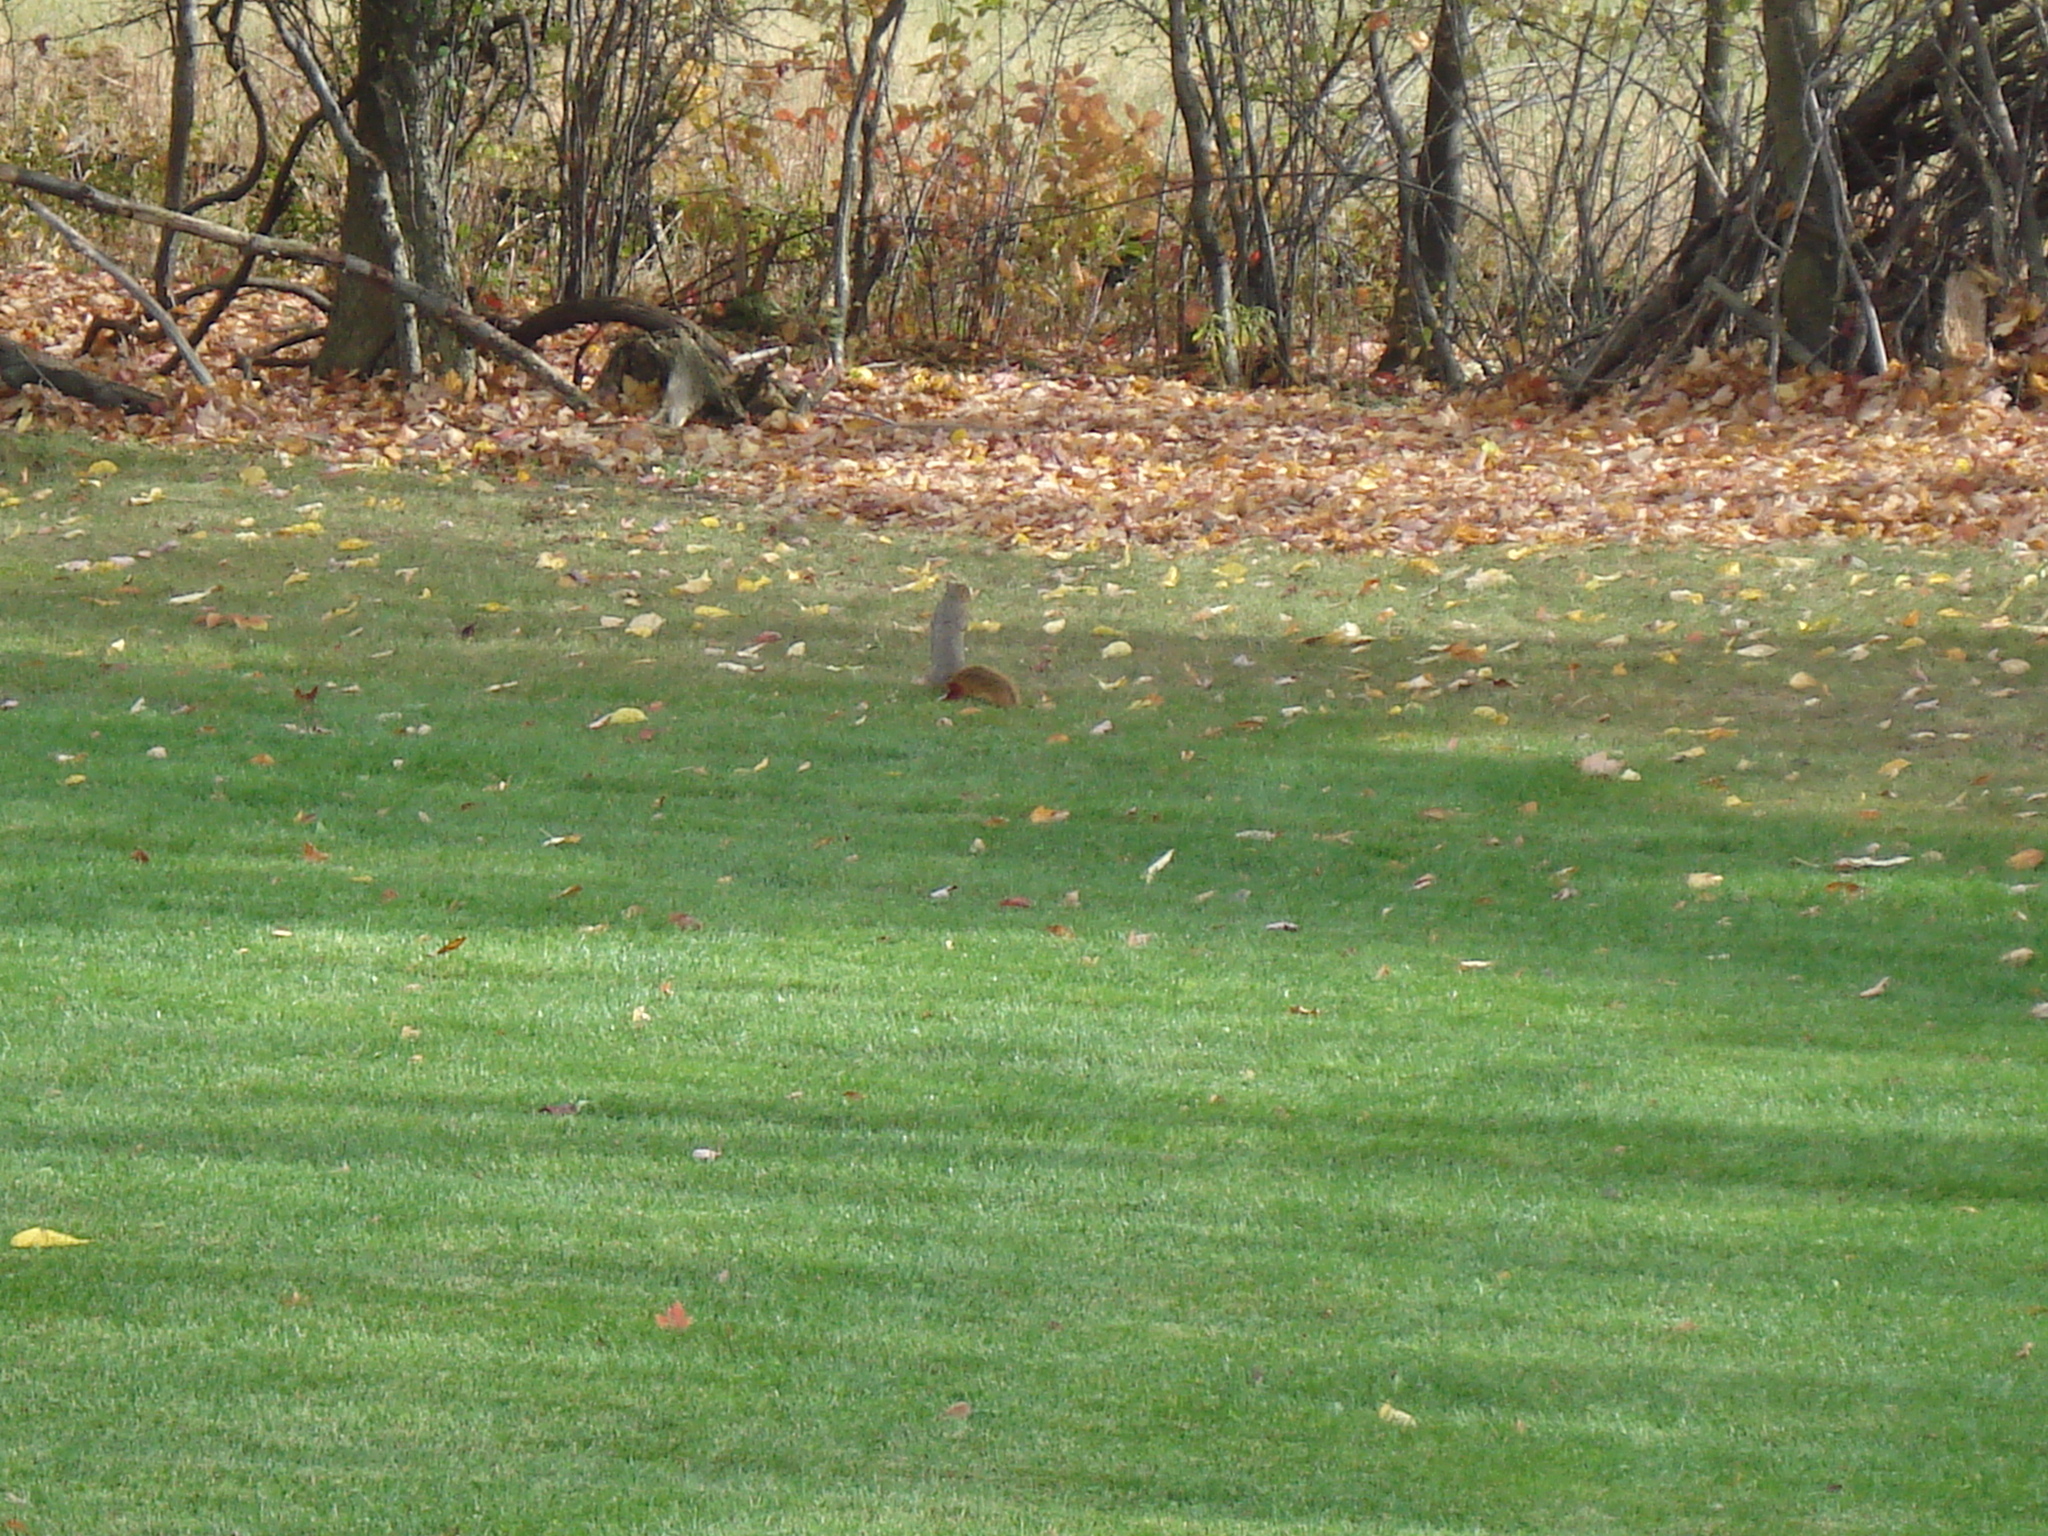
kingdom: Animalia
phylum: Chordata
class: Mammalia
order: Rodentia
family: Sciuridae
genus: Sciurus
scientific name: Sciurus niger
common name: Fox squirrel
